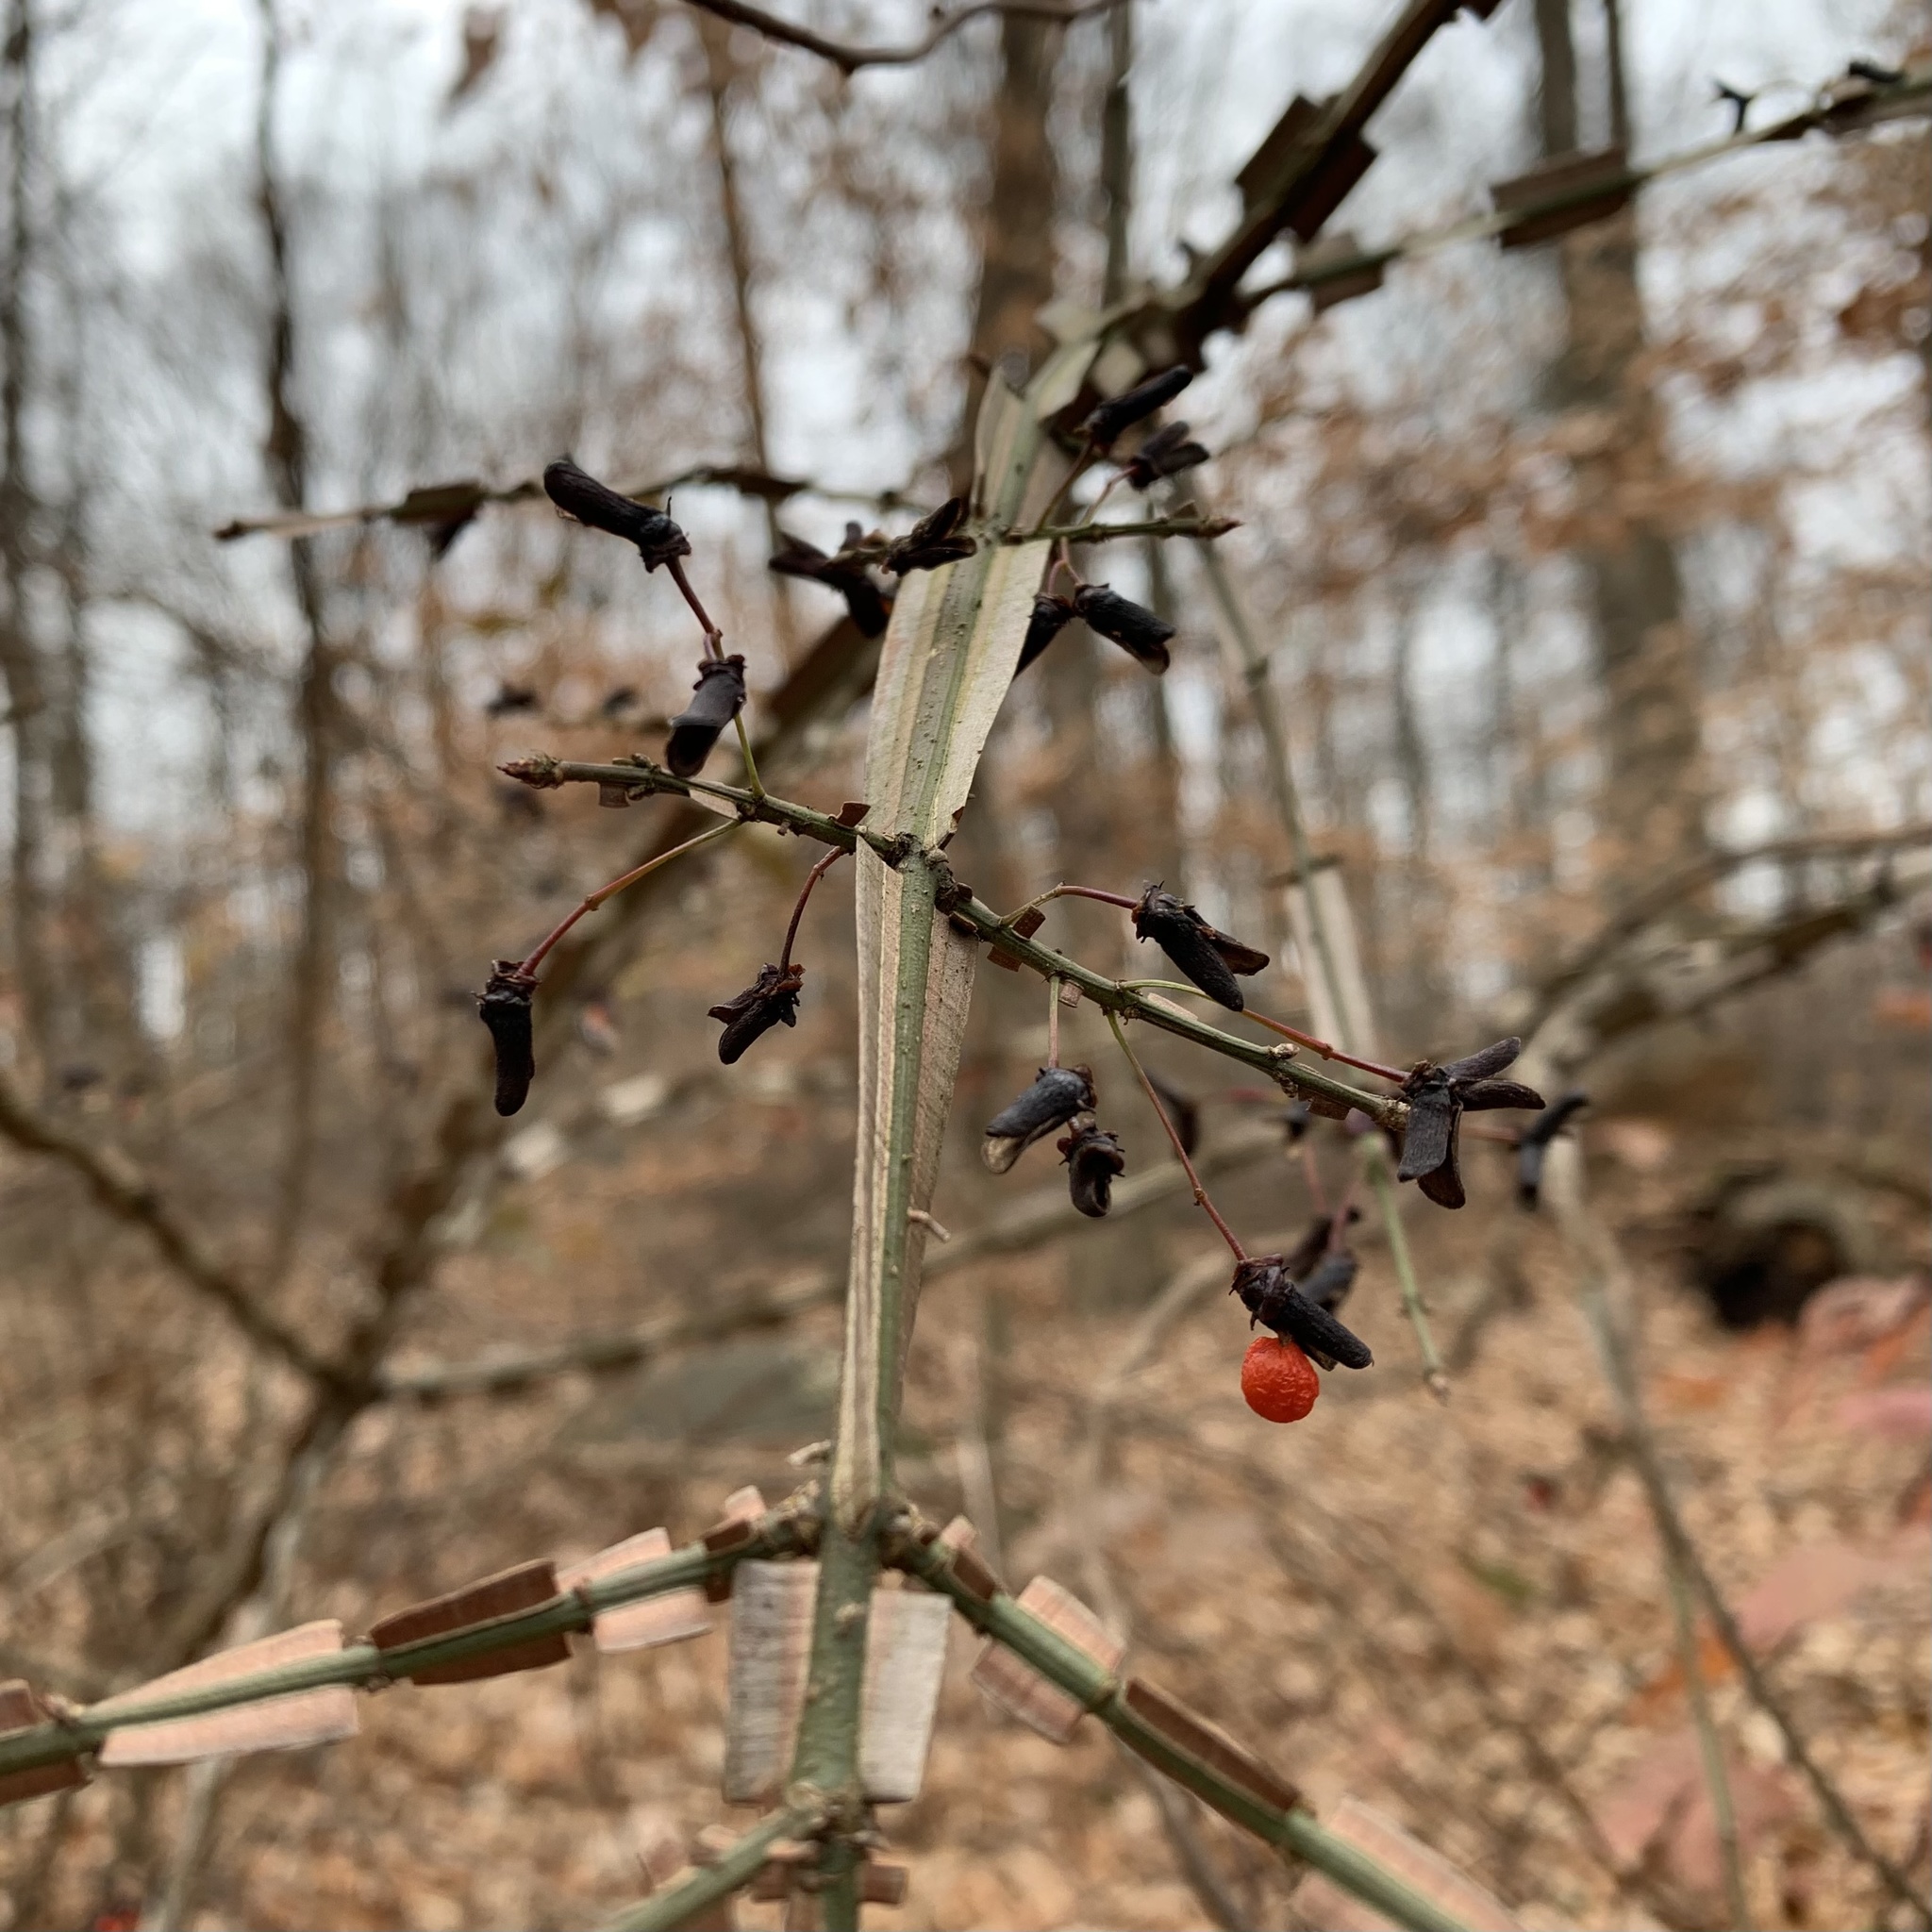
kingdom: Plantae
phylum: Tracheophyta
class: Magnoliopsida
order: Celastrales
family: Celastraceae
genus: Euonymus
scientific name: Euonymus alatus
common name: Winged euonymus
